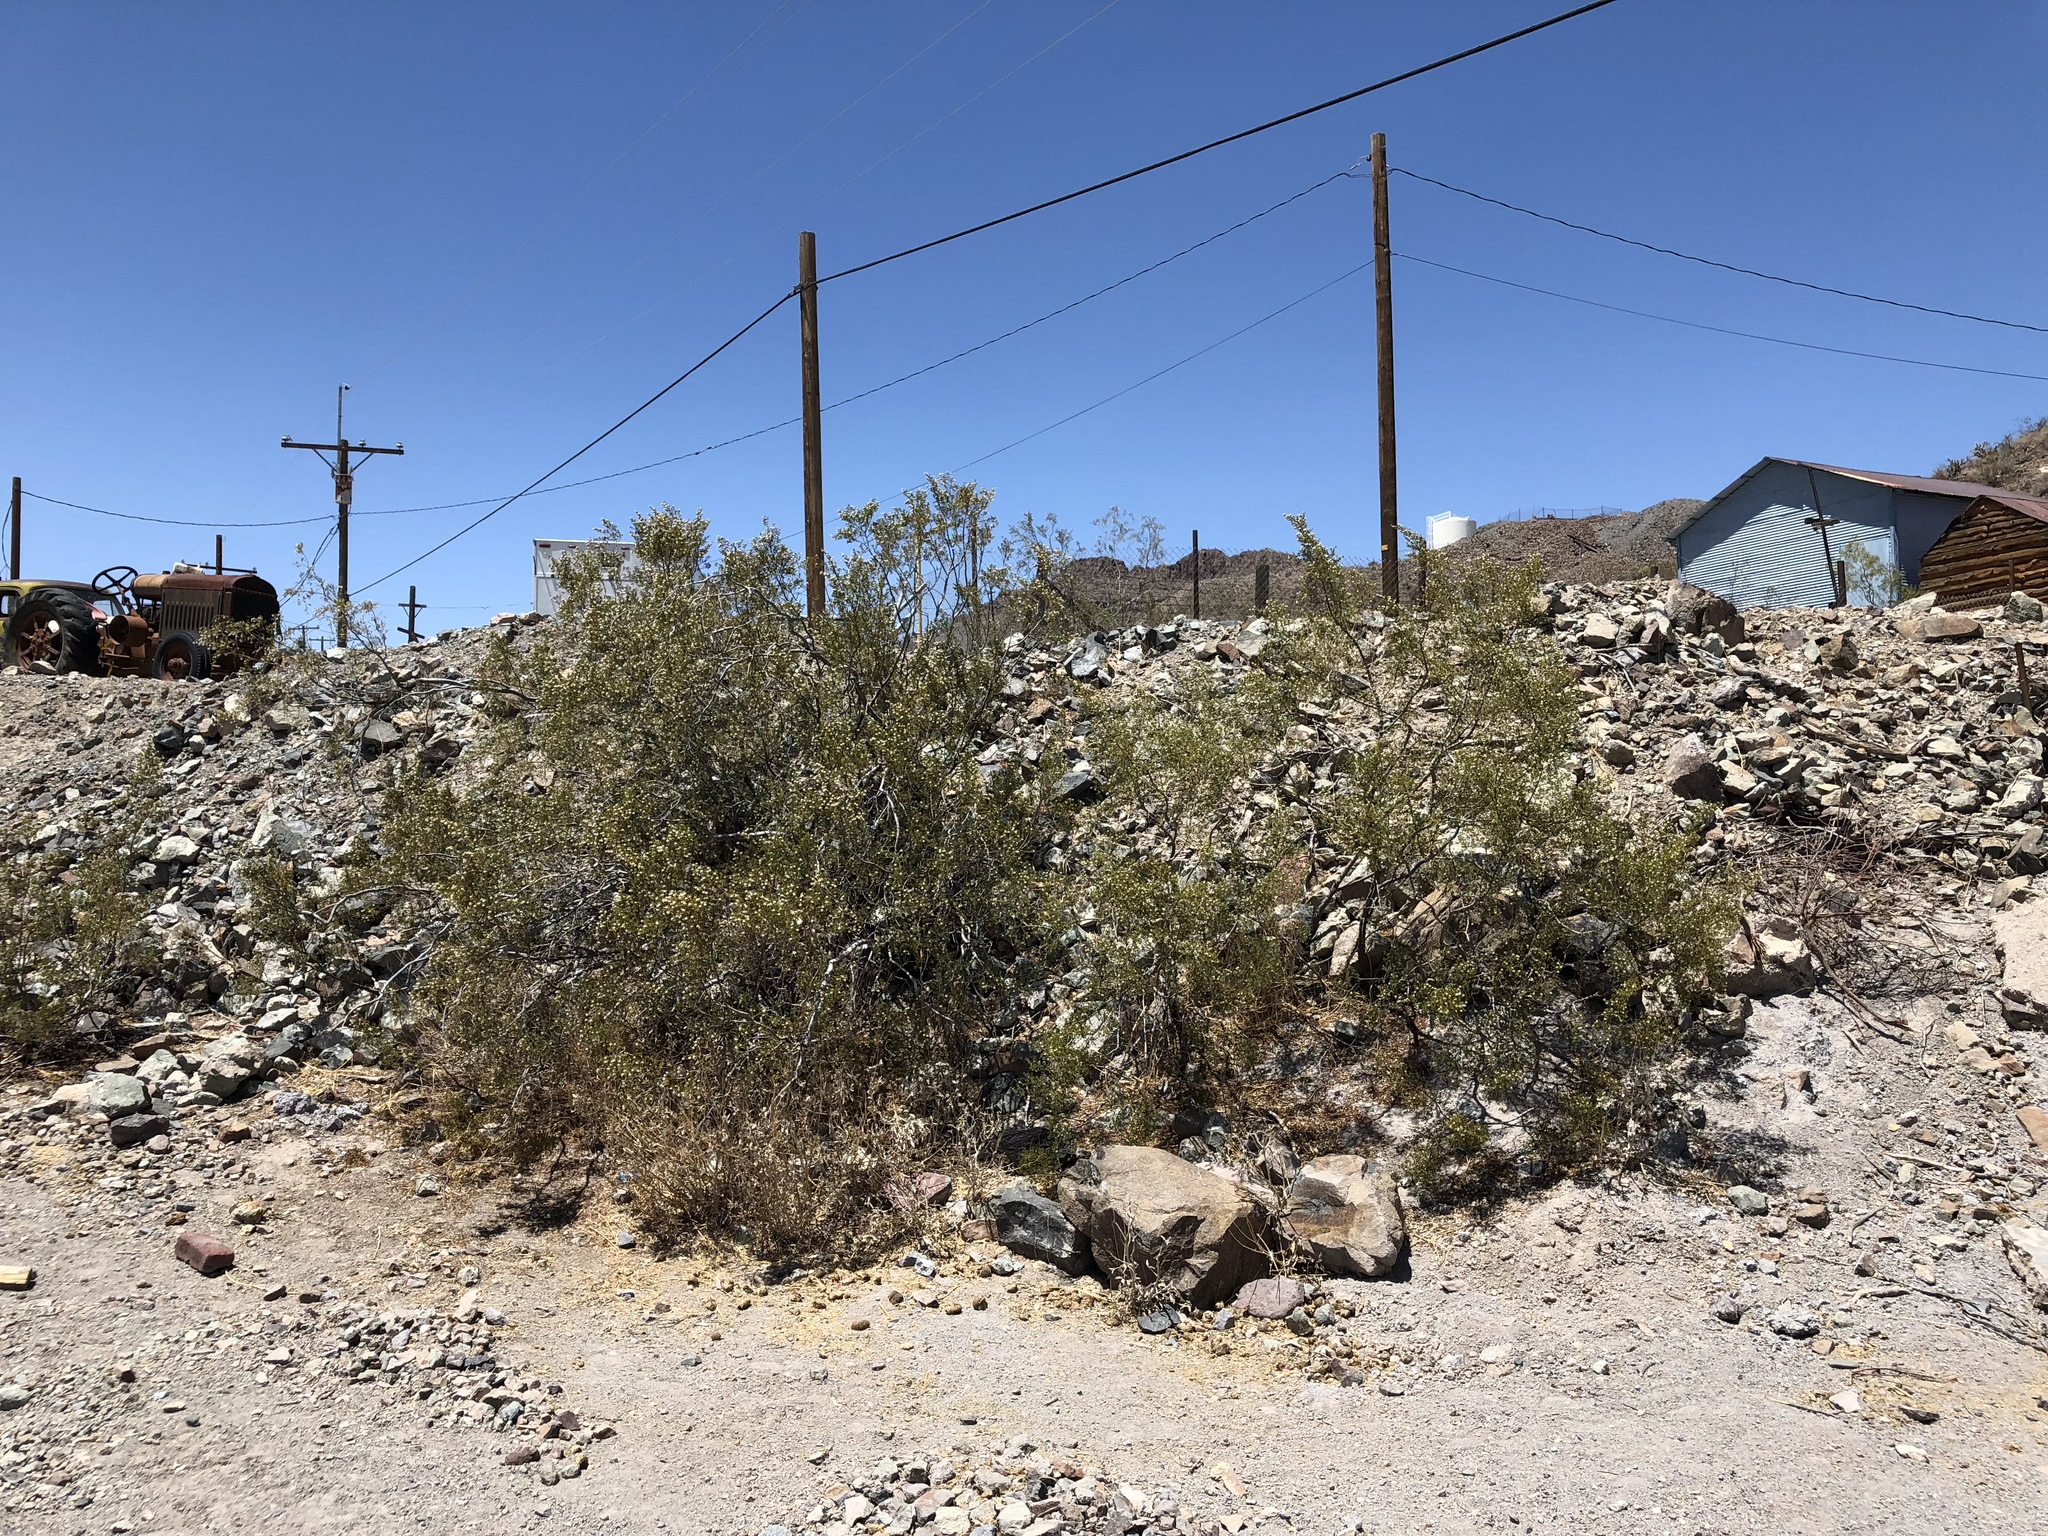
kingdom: Plantae
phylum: Tracheophyta
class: Magnoliopsida
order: Zygophyllales
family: Zygophyllaceae
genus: Larrea
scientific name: Larrea tridentata
